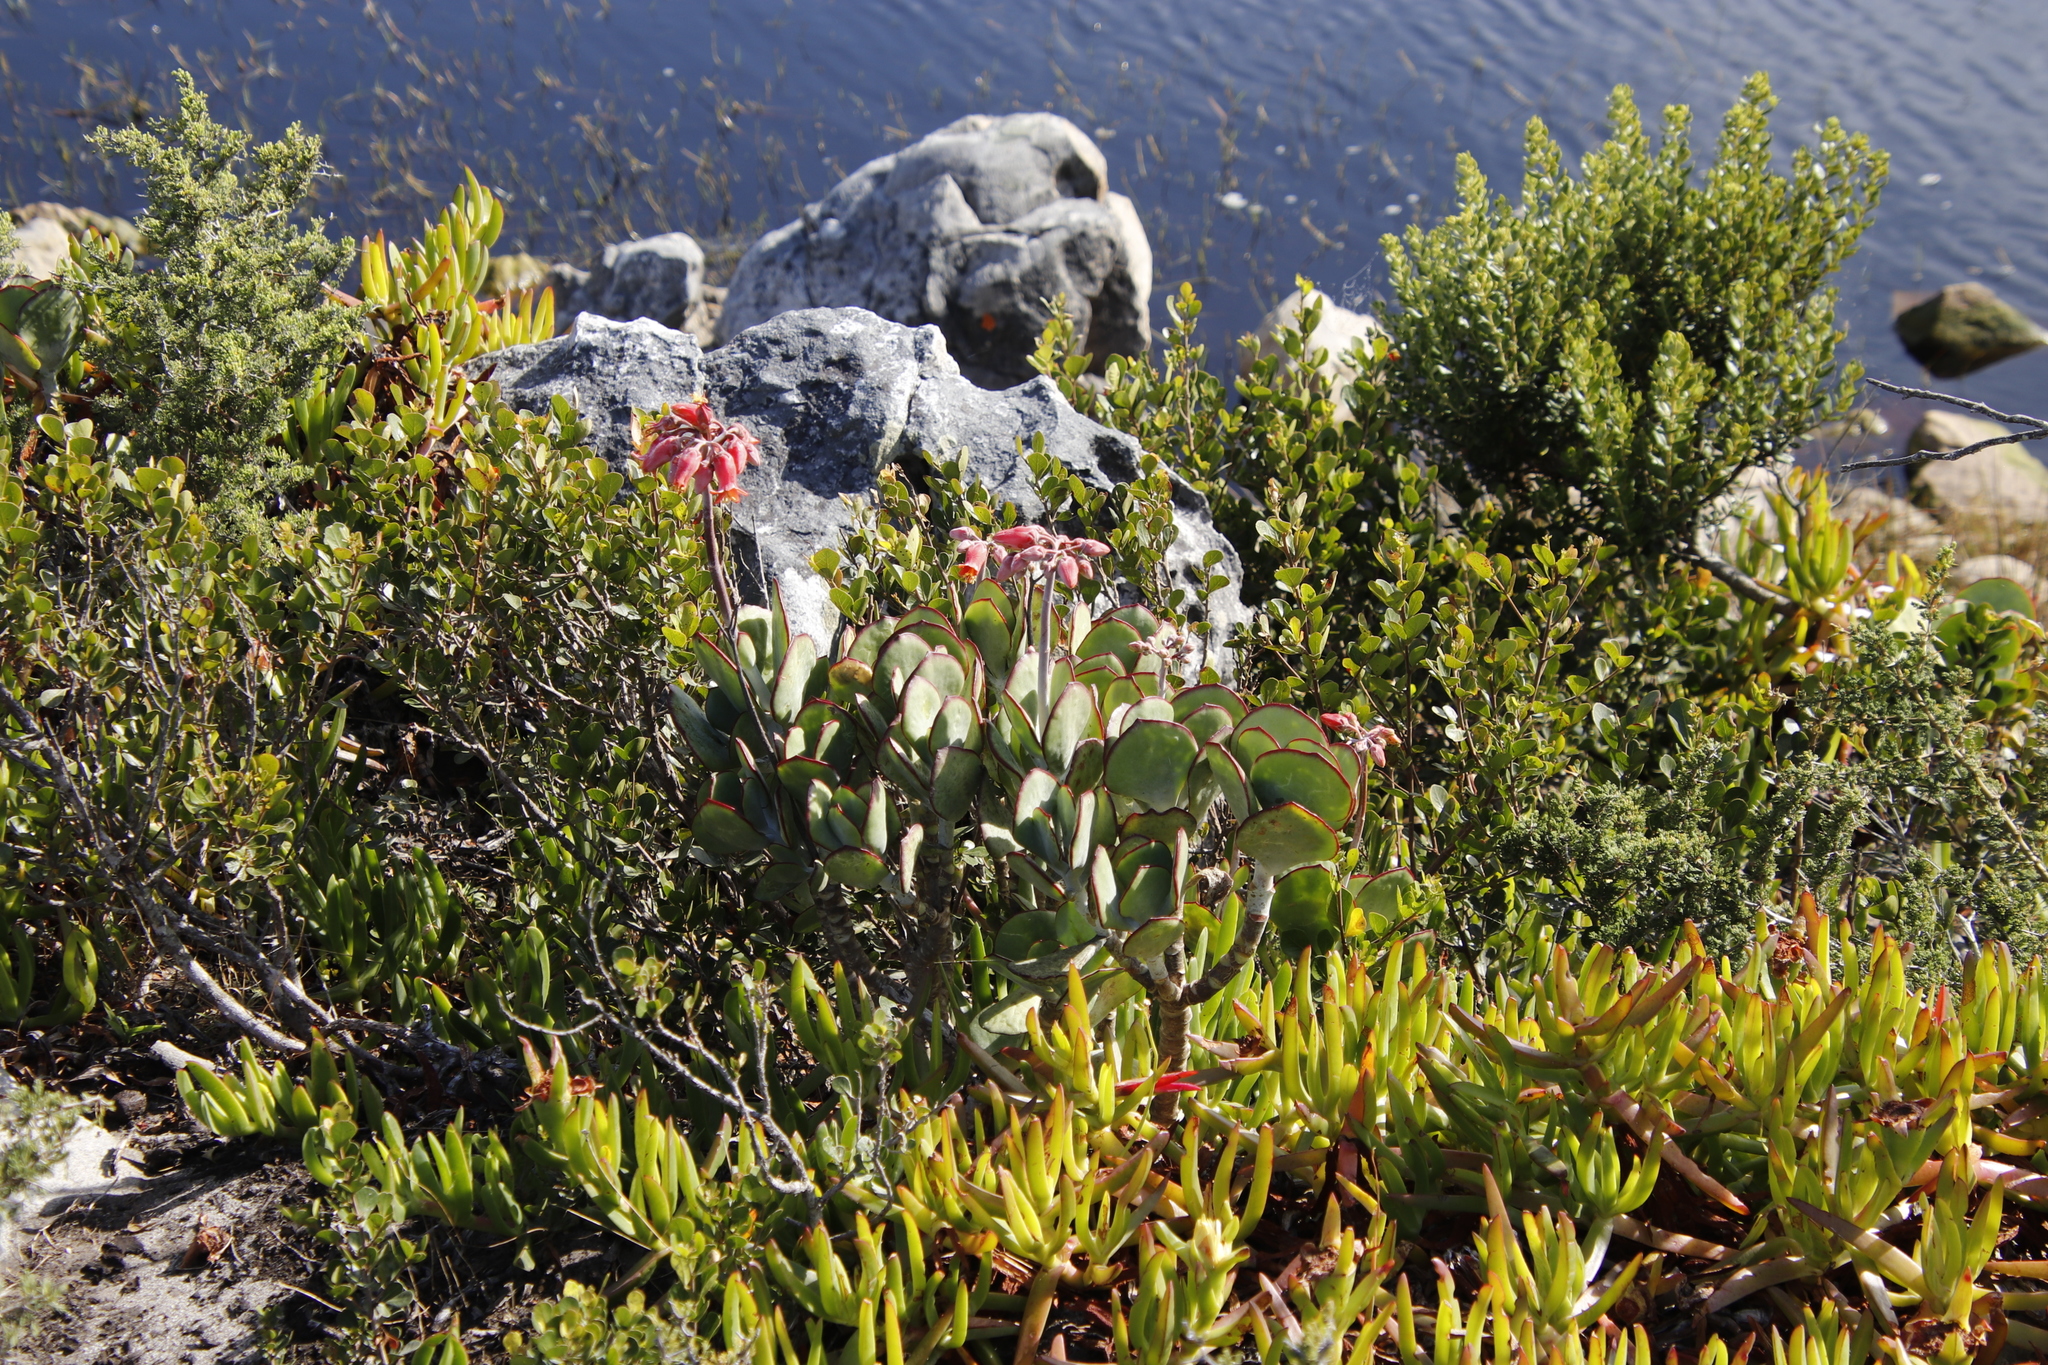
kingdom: Plantae
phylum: Tracheophyta
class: Magnoliopsida
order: Saxifragales
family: Crassulaceae
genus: Cotyledon
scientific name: Cotyledon orbiculata
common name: Pig's ear
